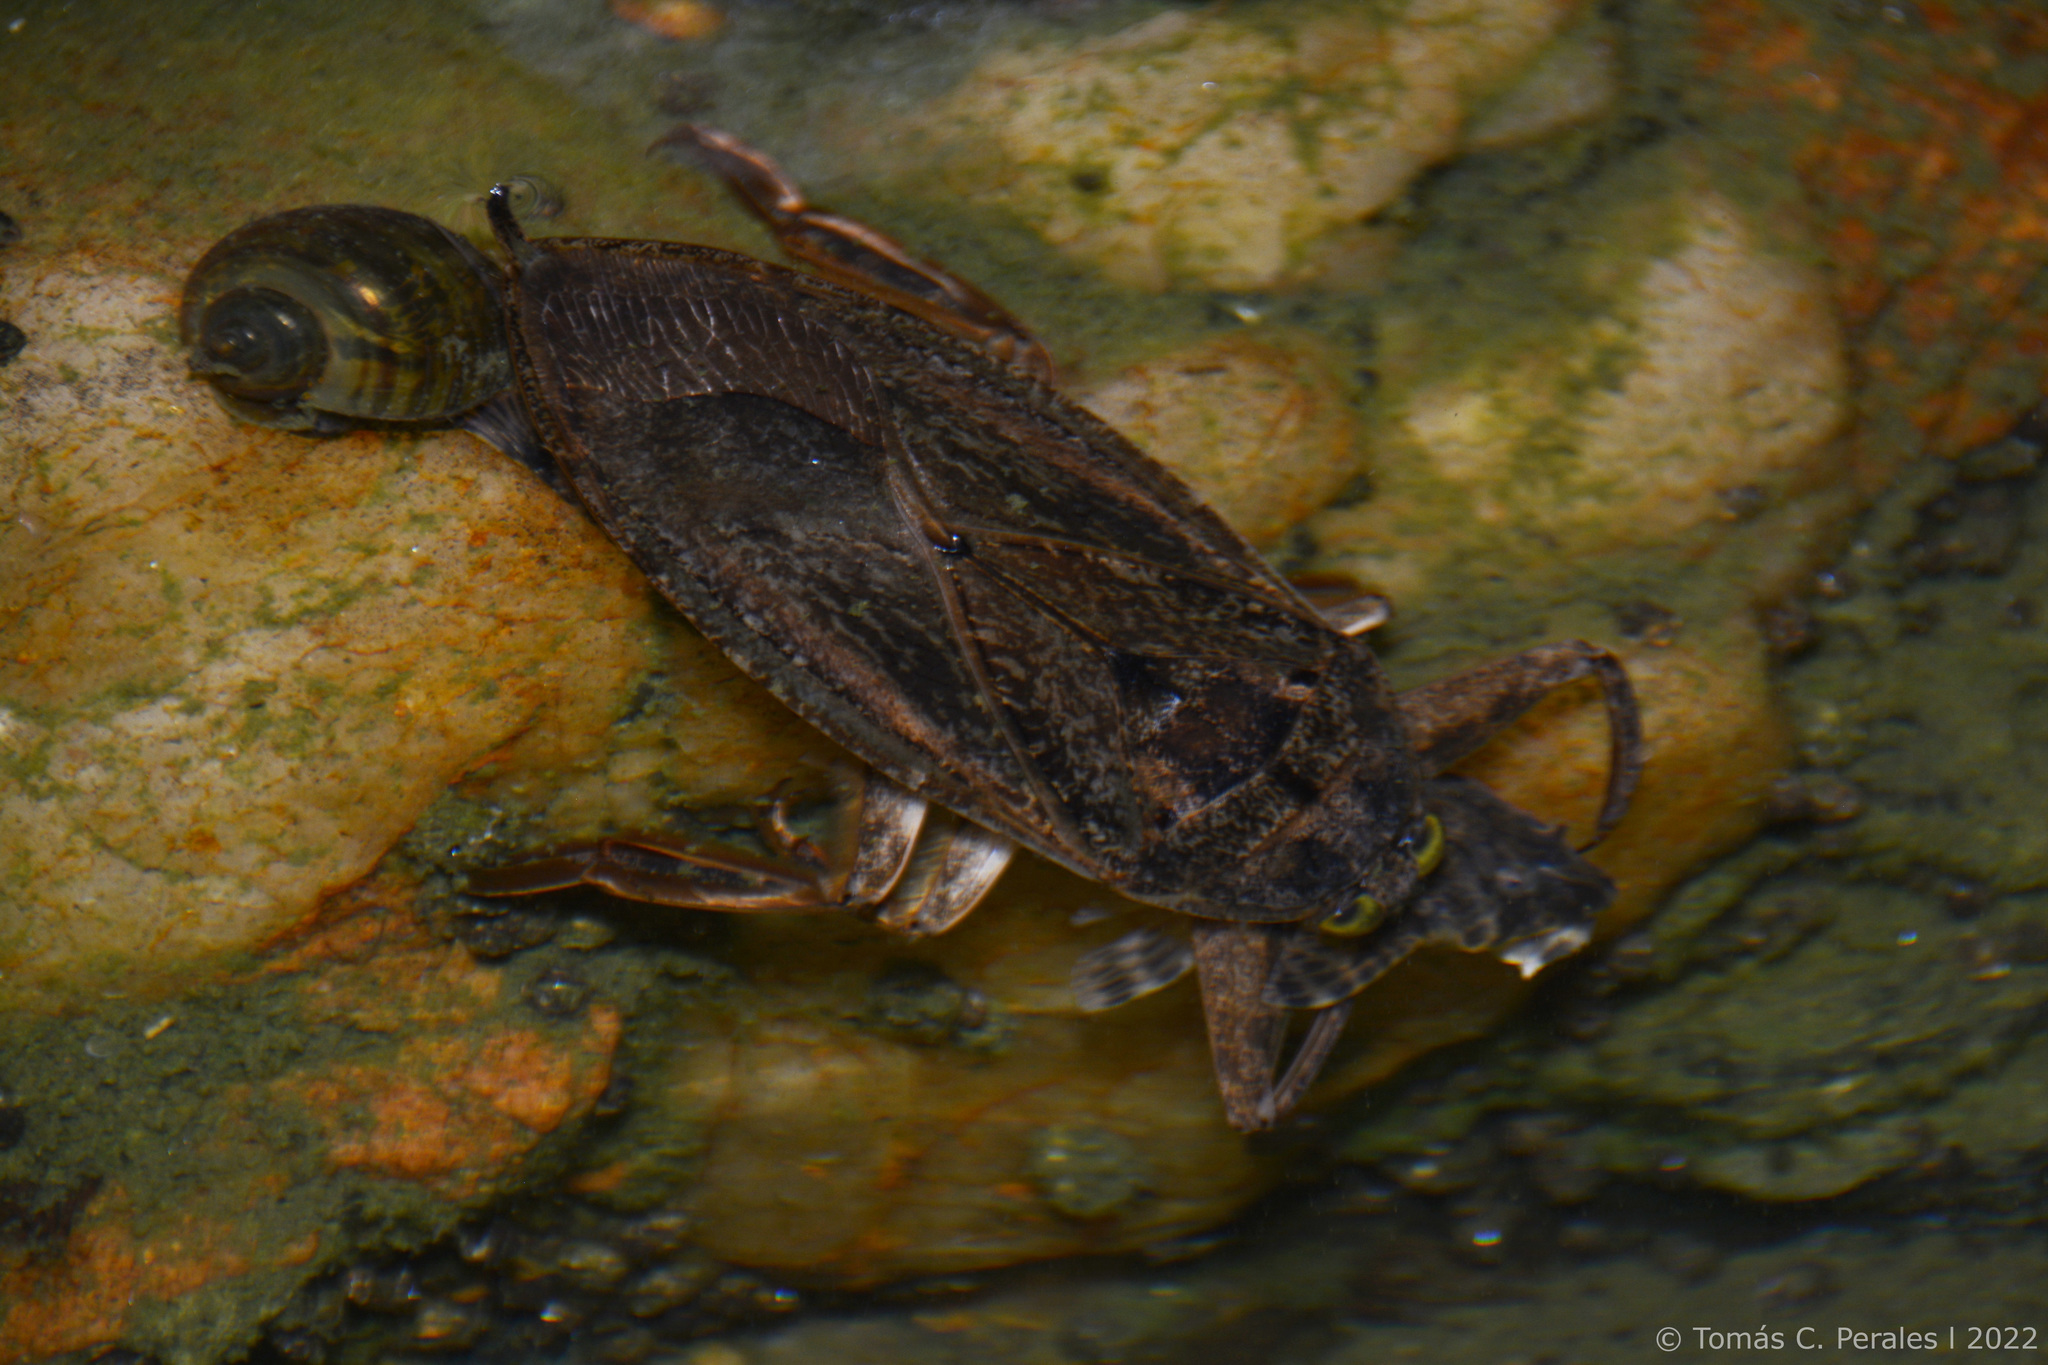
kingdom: Animalia
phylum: Chordata
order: Siluriformes
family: Loricariidae
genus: Rineloricaria
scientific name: Rineloricaria catamarcensis
